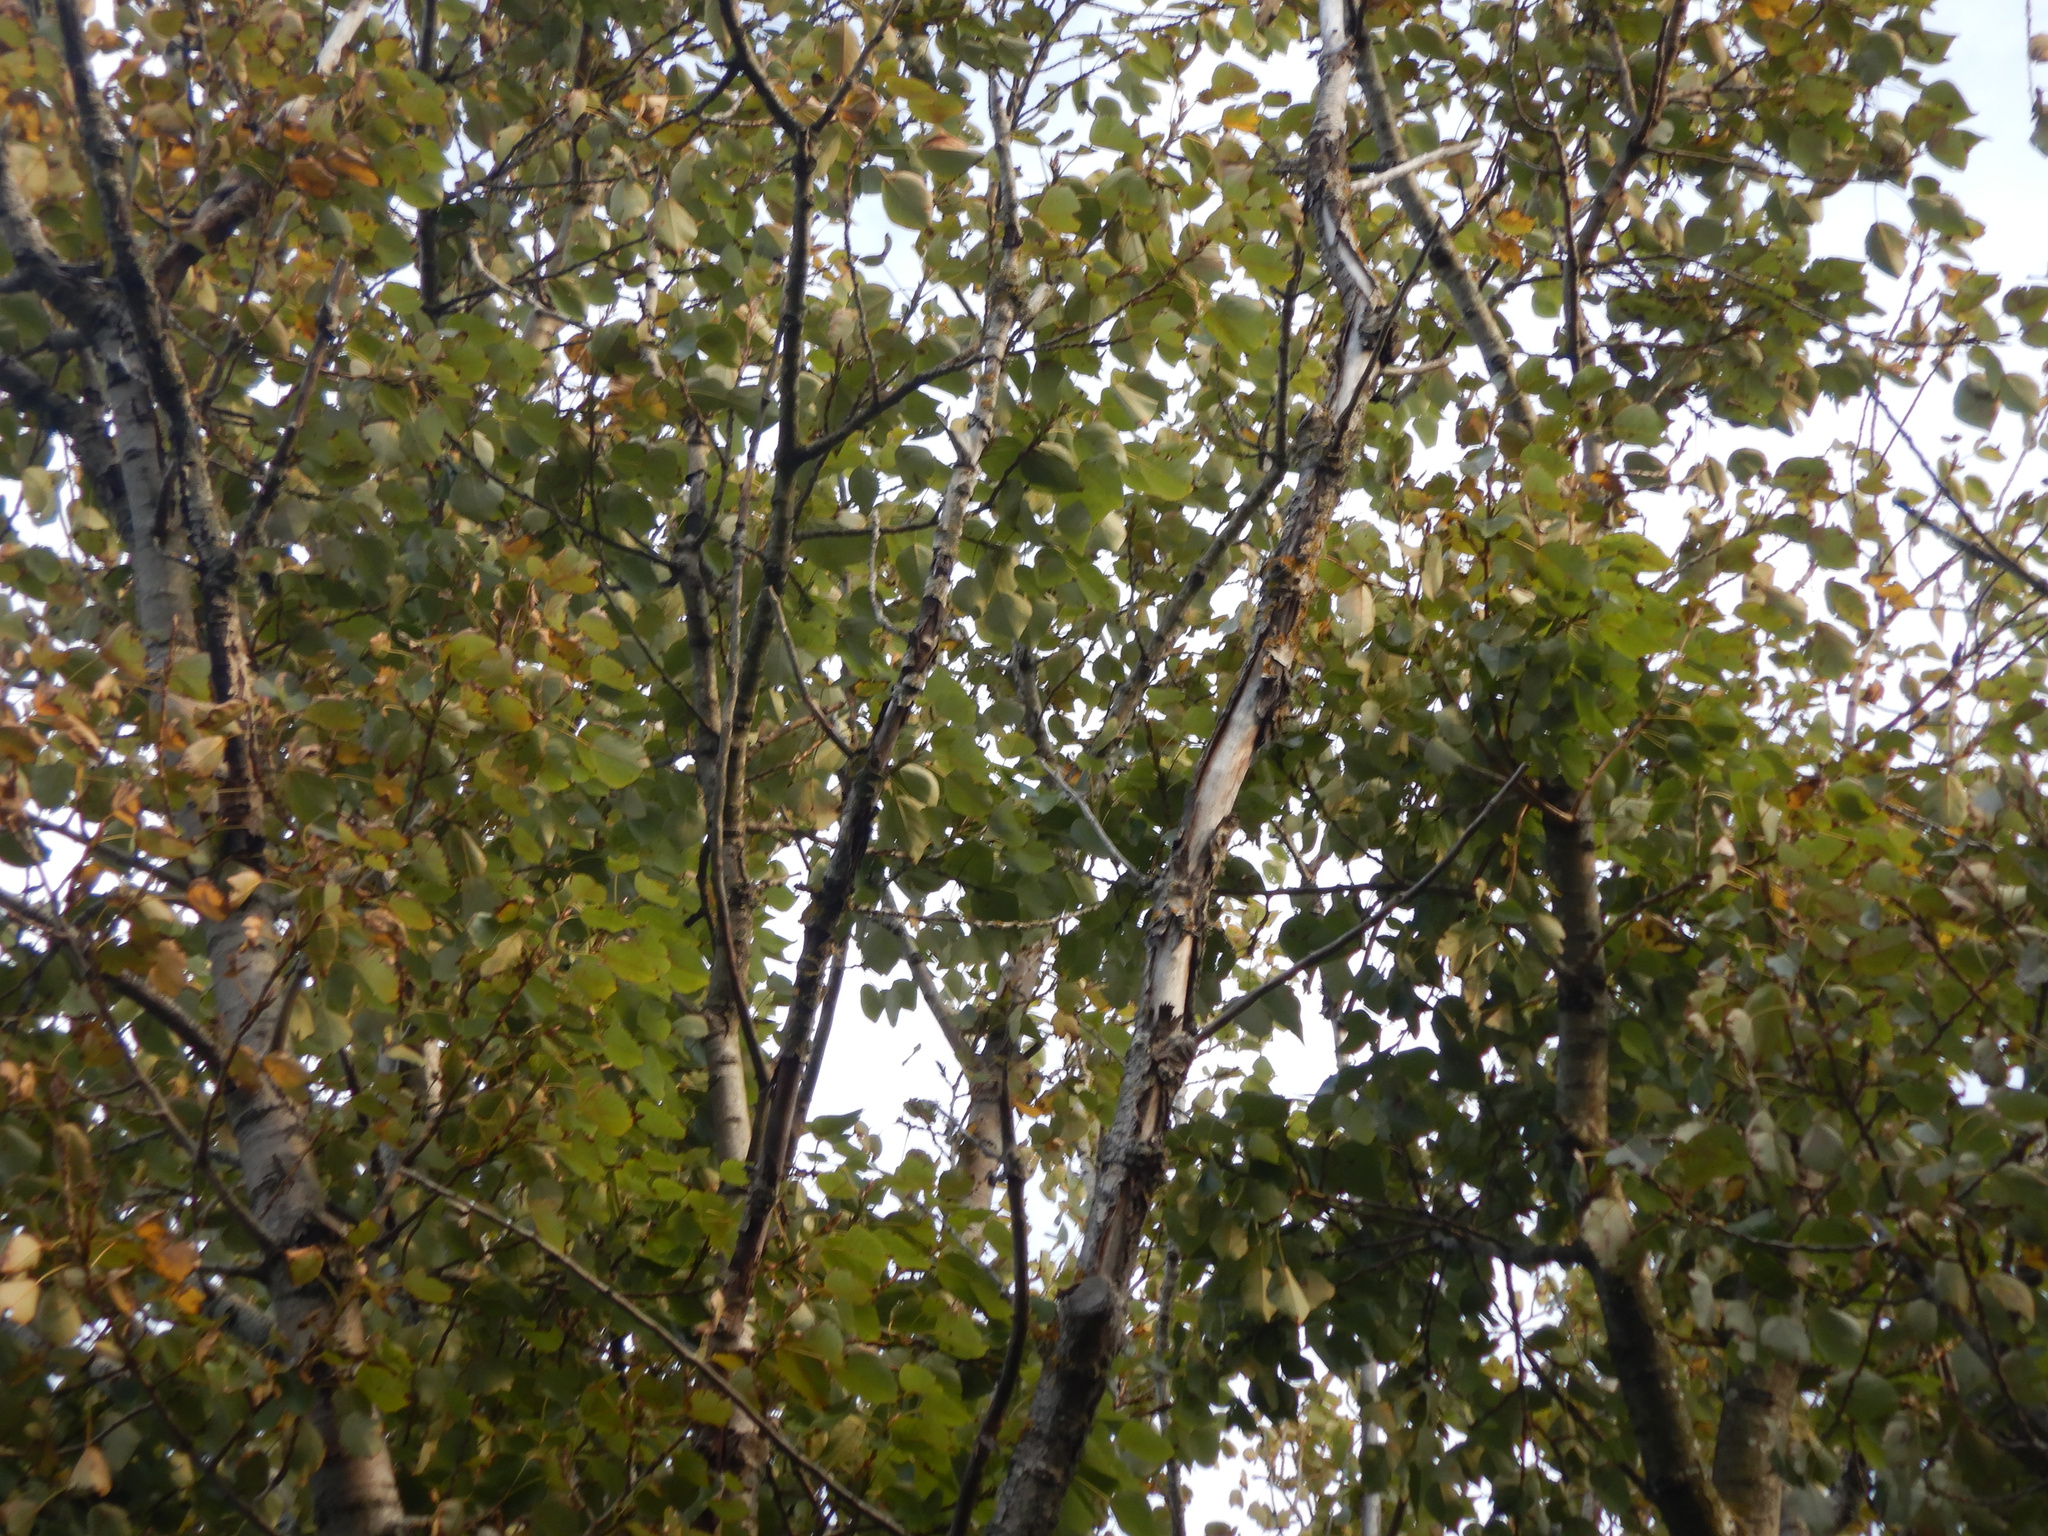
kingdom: Animalia
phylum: Chordata
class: Aves
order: Passeriformes
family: Rhipiduridae
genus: Rhipidura
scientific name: Rhipidura fuliginosa
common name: New zealand fantail
